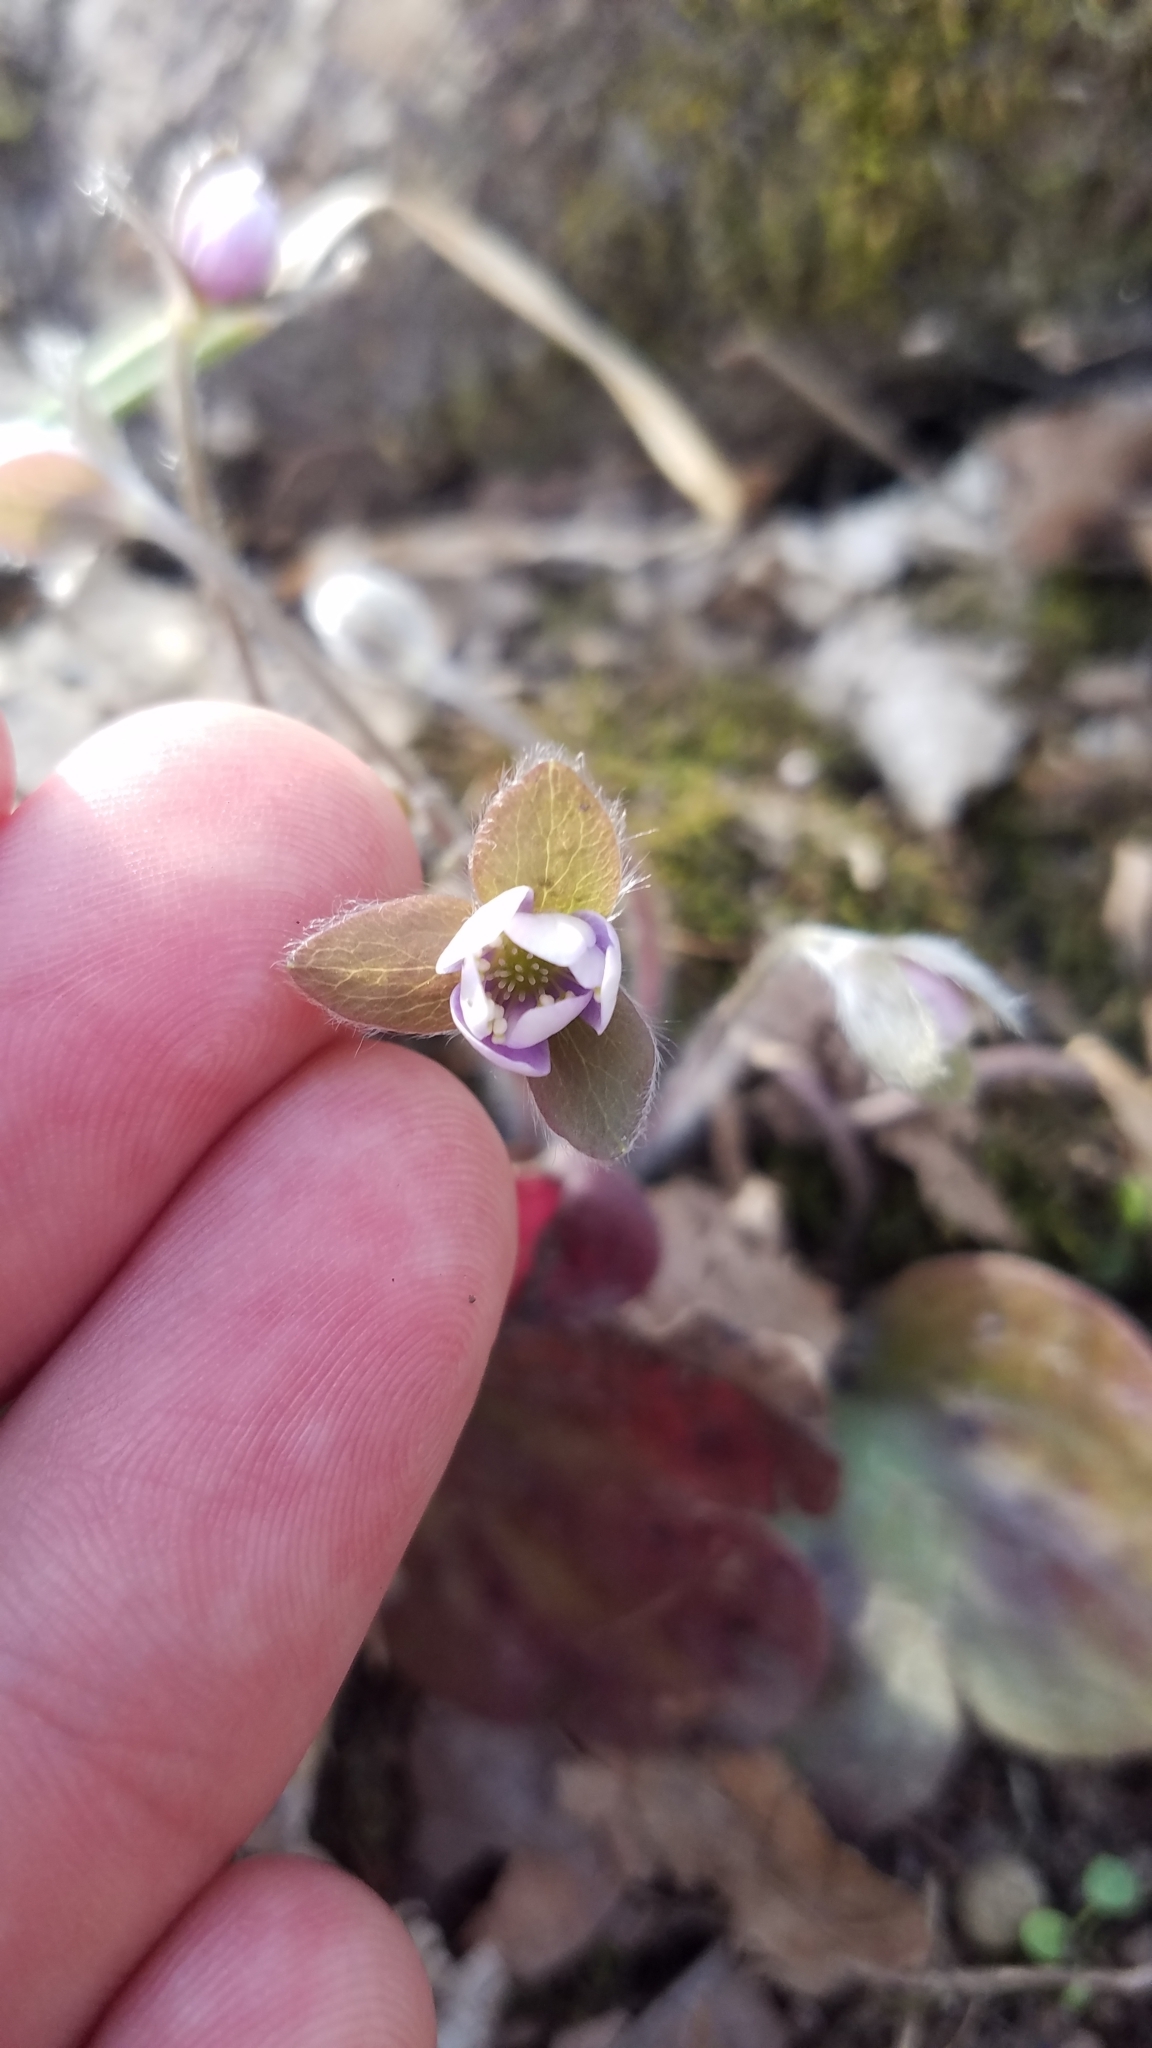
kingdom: Plantae
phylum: Tracheophyta
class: Magnoliopsida
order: Ranunculales
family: Ranunculaceae
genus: Hepatica
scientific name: Hepatica americana
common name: American hepatica
